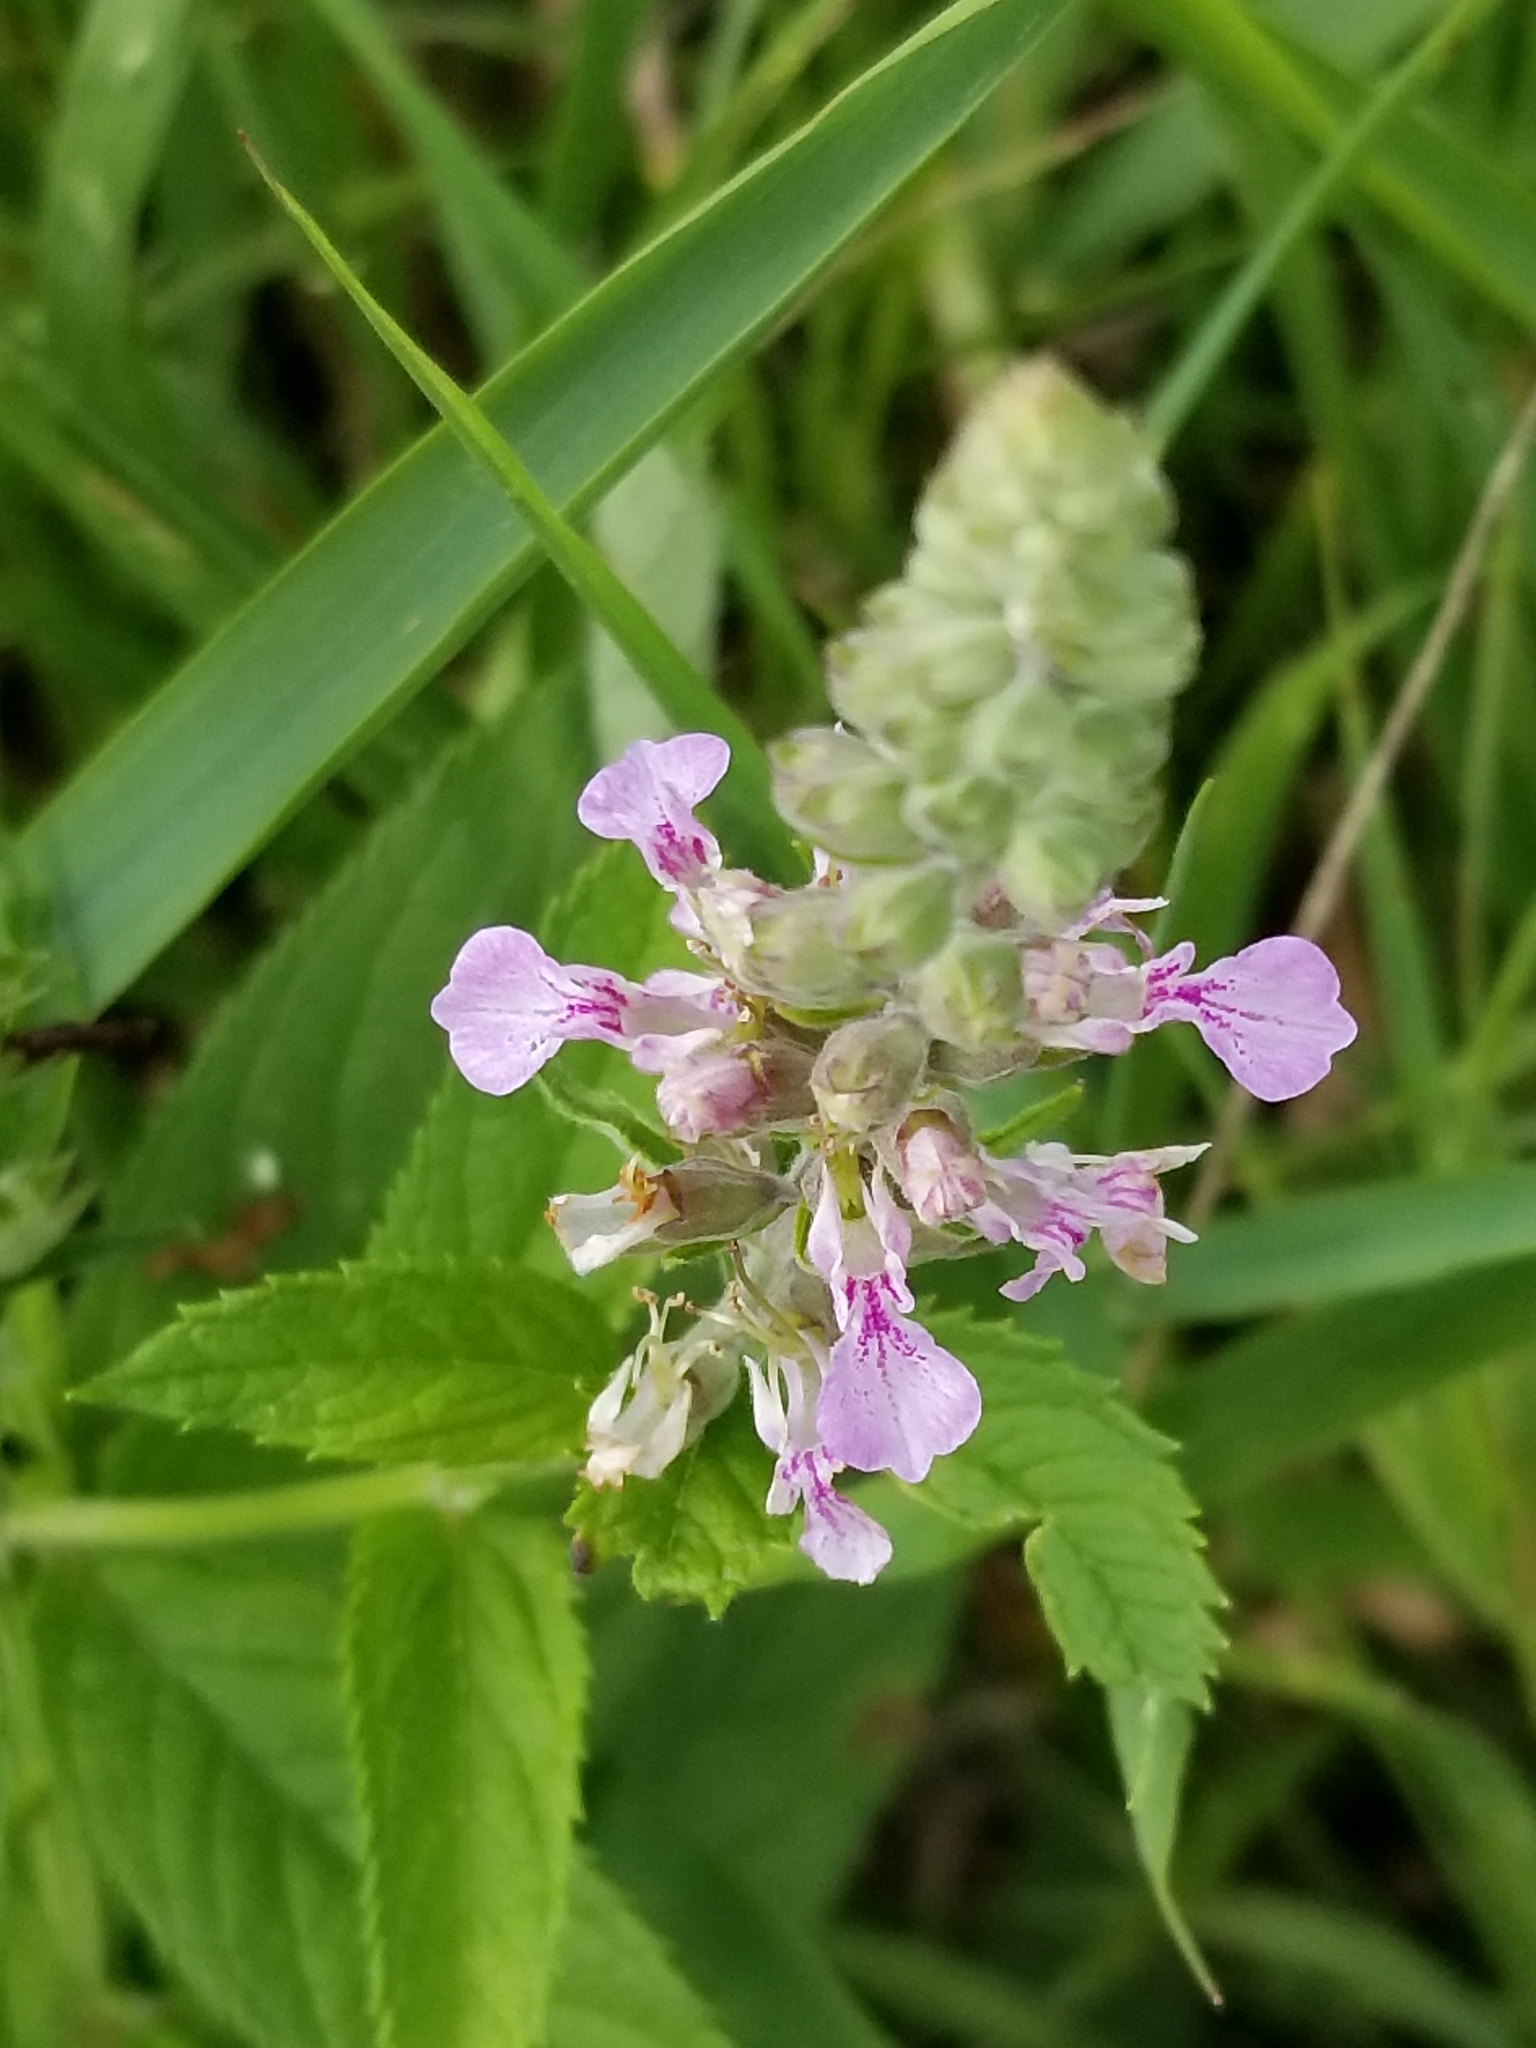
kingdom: Plantae
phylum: Tracheophyta
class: Magnoliopsida
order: Lamiales
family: Lamiaceae
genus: Teucrium
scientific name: Teucrium canadense
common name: American germander
